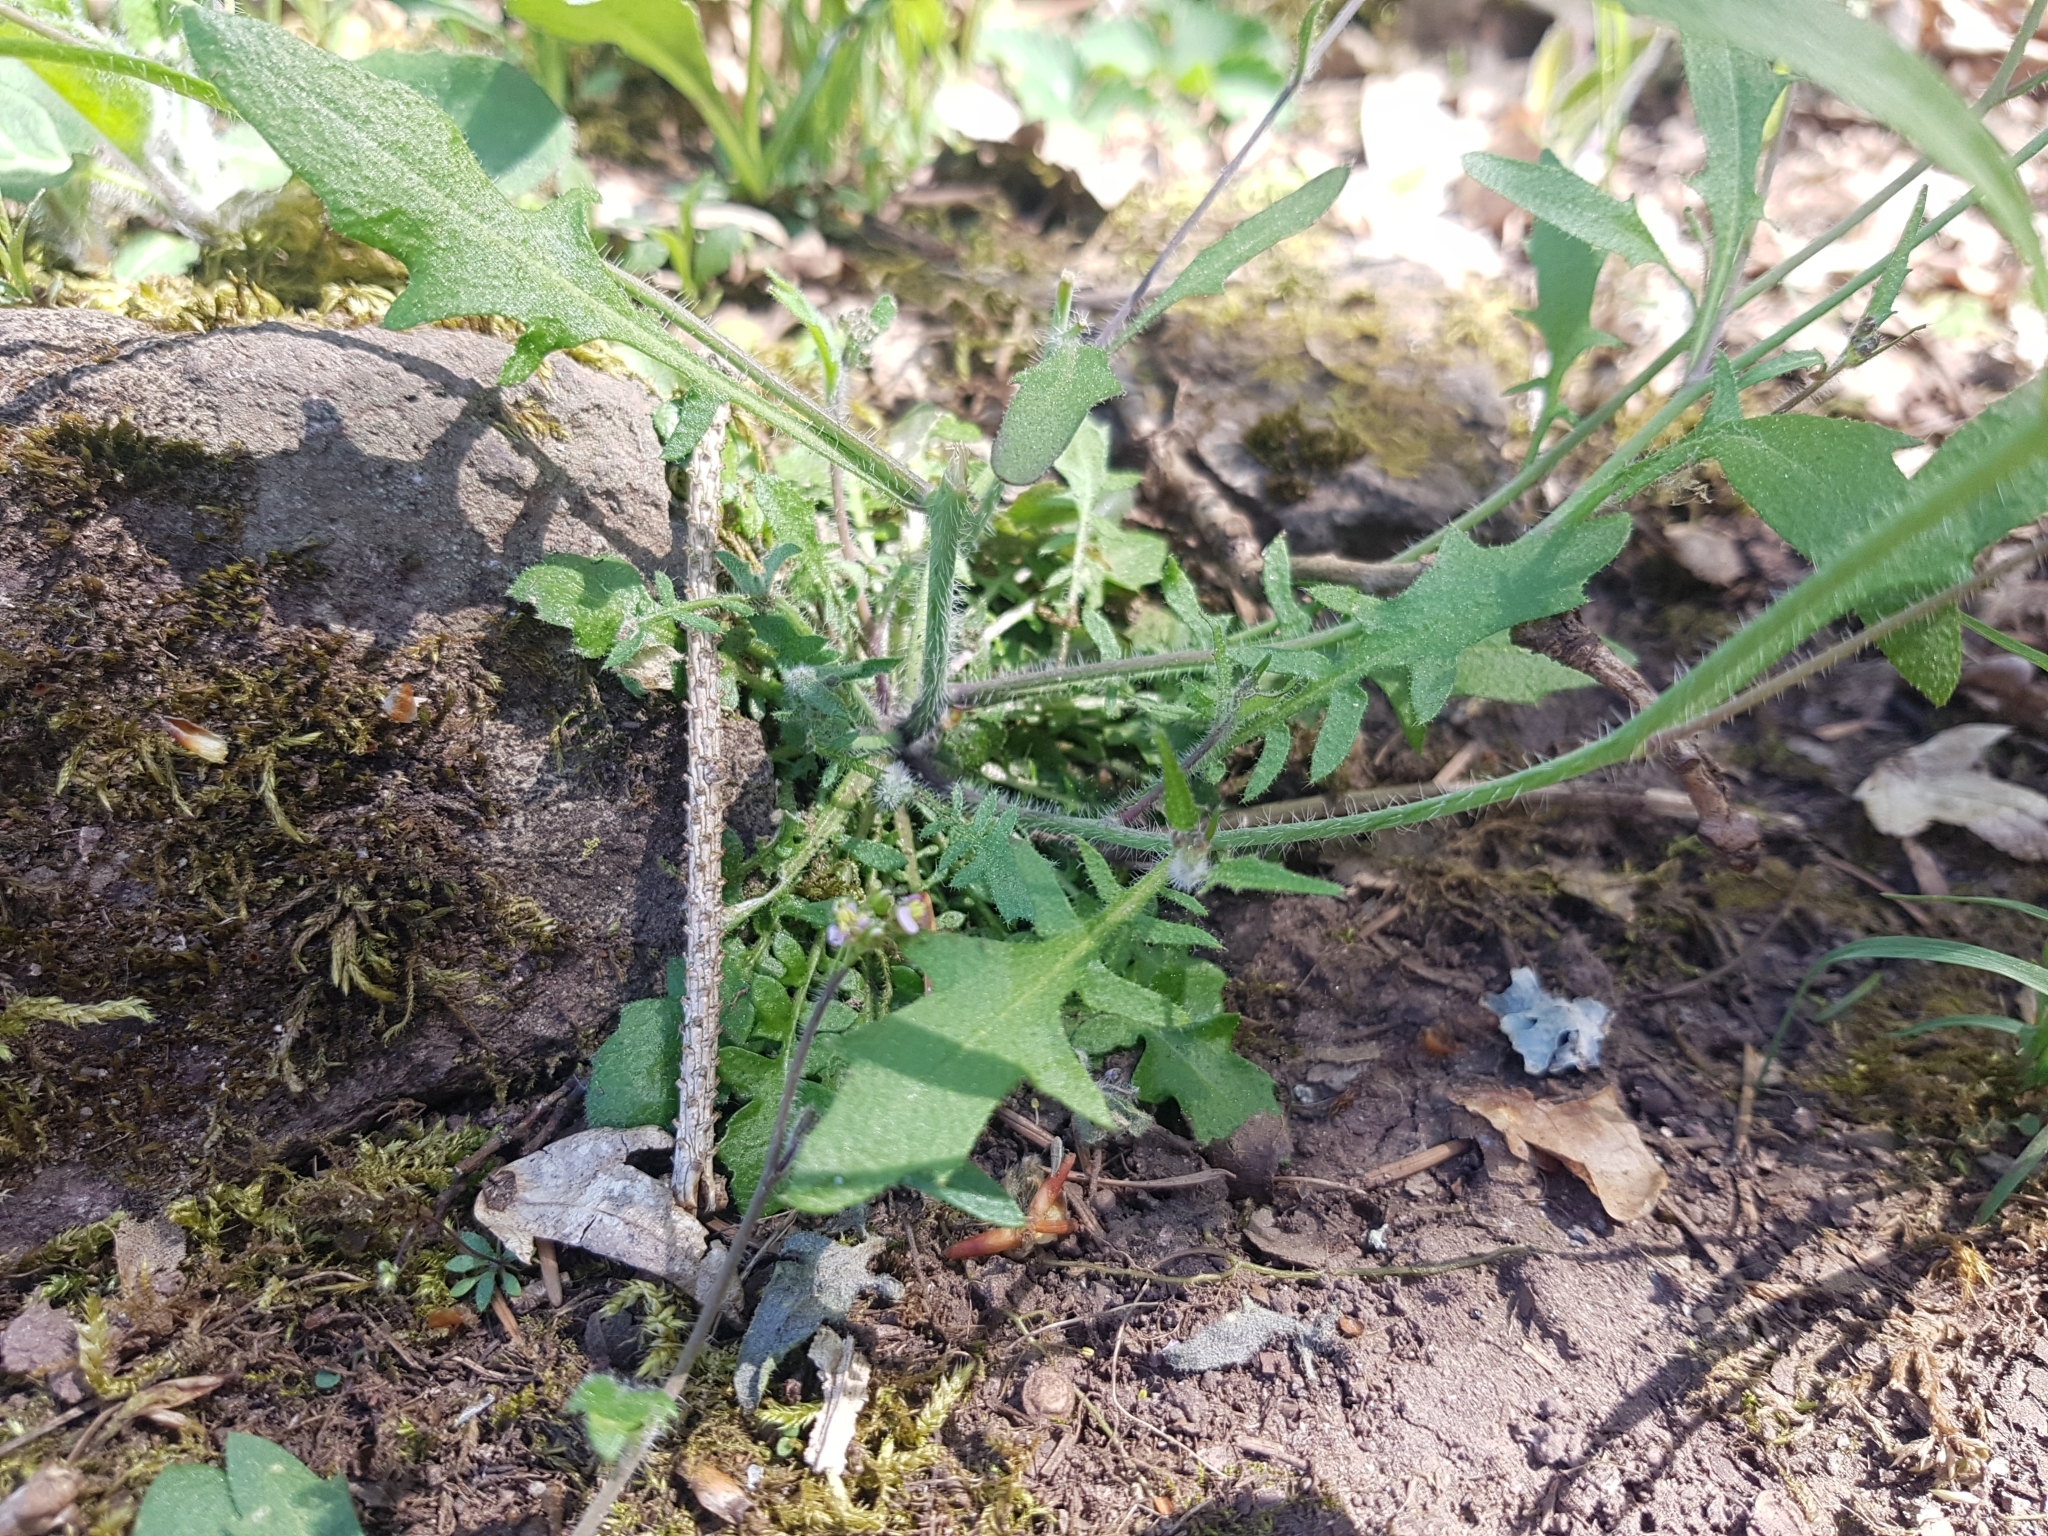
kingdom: Plantae
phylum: Tracheophyta
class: Magnoliopsida
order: Brassicales
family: Brassicaceae
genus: Arabidopsis
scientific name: Arabidopsis arenosa
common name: Sand rock-cress
